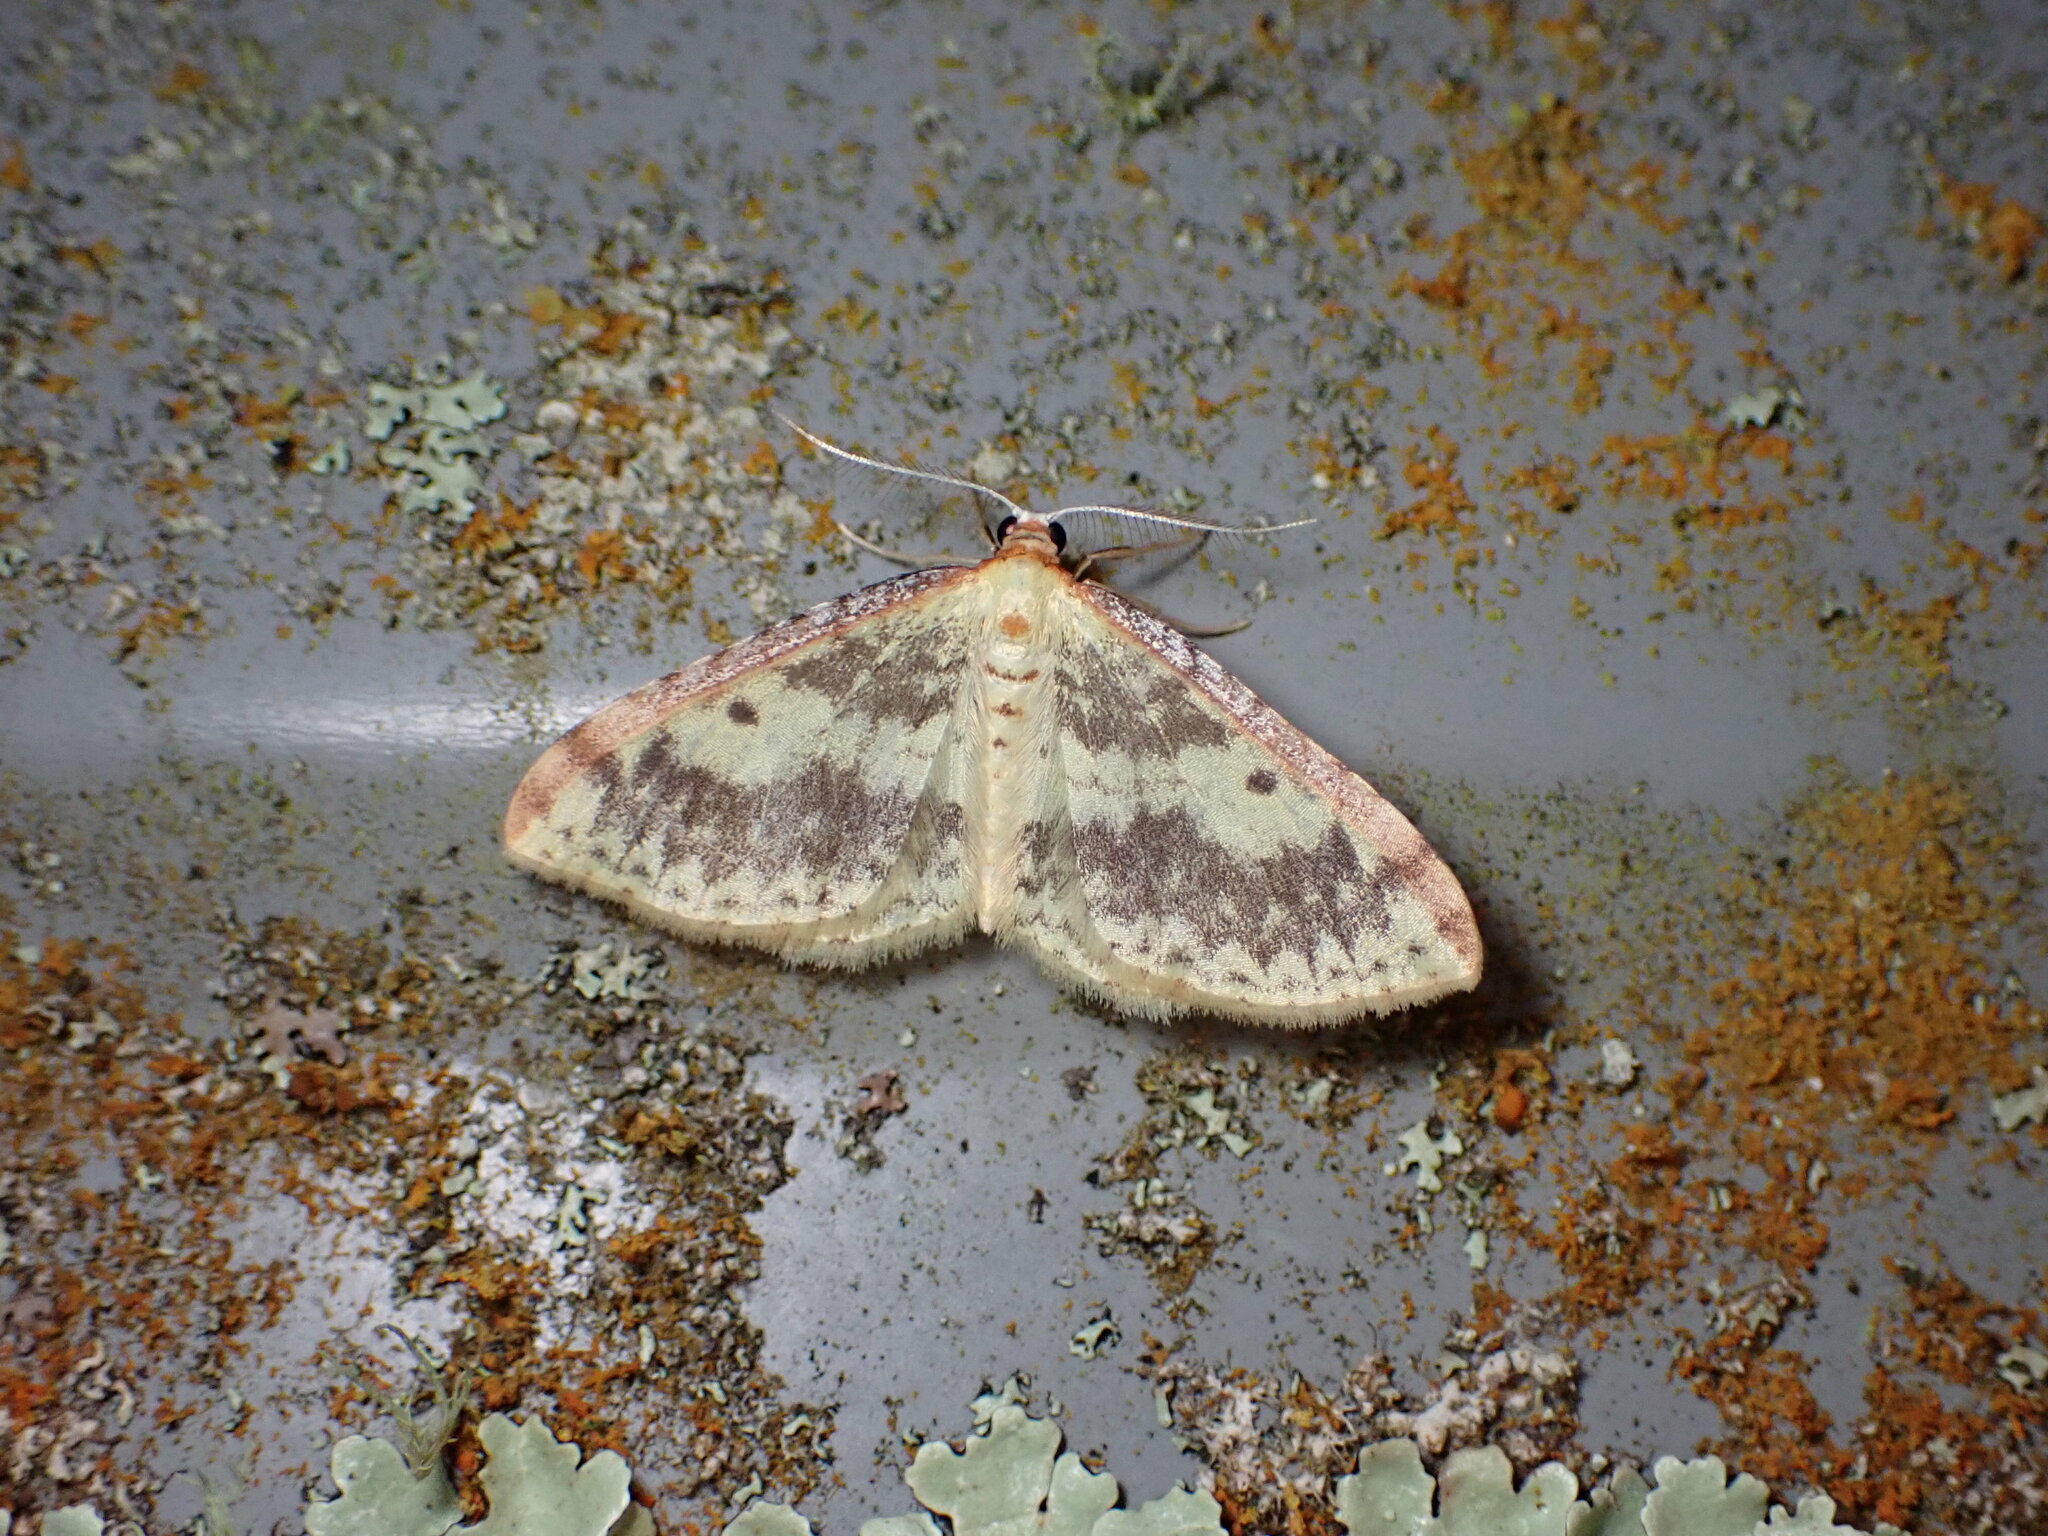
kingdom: Animalia
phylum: Arthropoda
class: Insecta
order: Lepidoptera
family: Geometridae
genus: Epiphryne
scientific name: Epiphryne undosata
